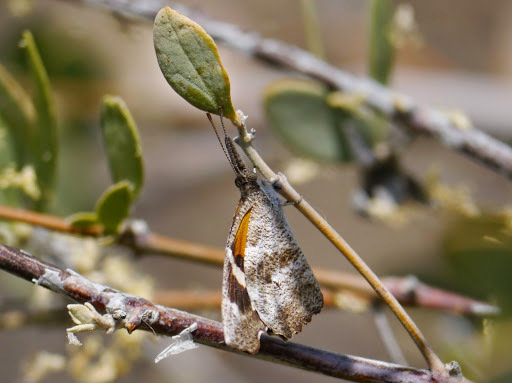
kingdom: Animalia
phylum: Arthropoda
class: Insecta
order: Lepidoptera
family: Nymphalidae
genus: Libytheana
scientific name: Libytheana carinenta
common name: American snout
